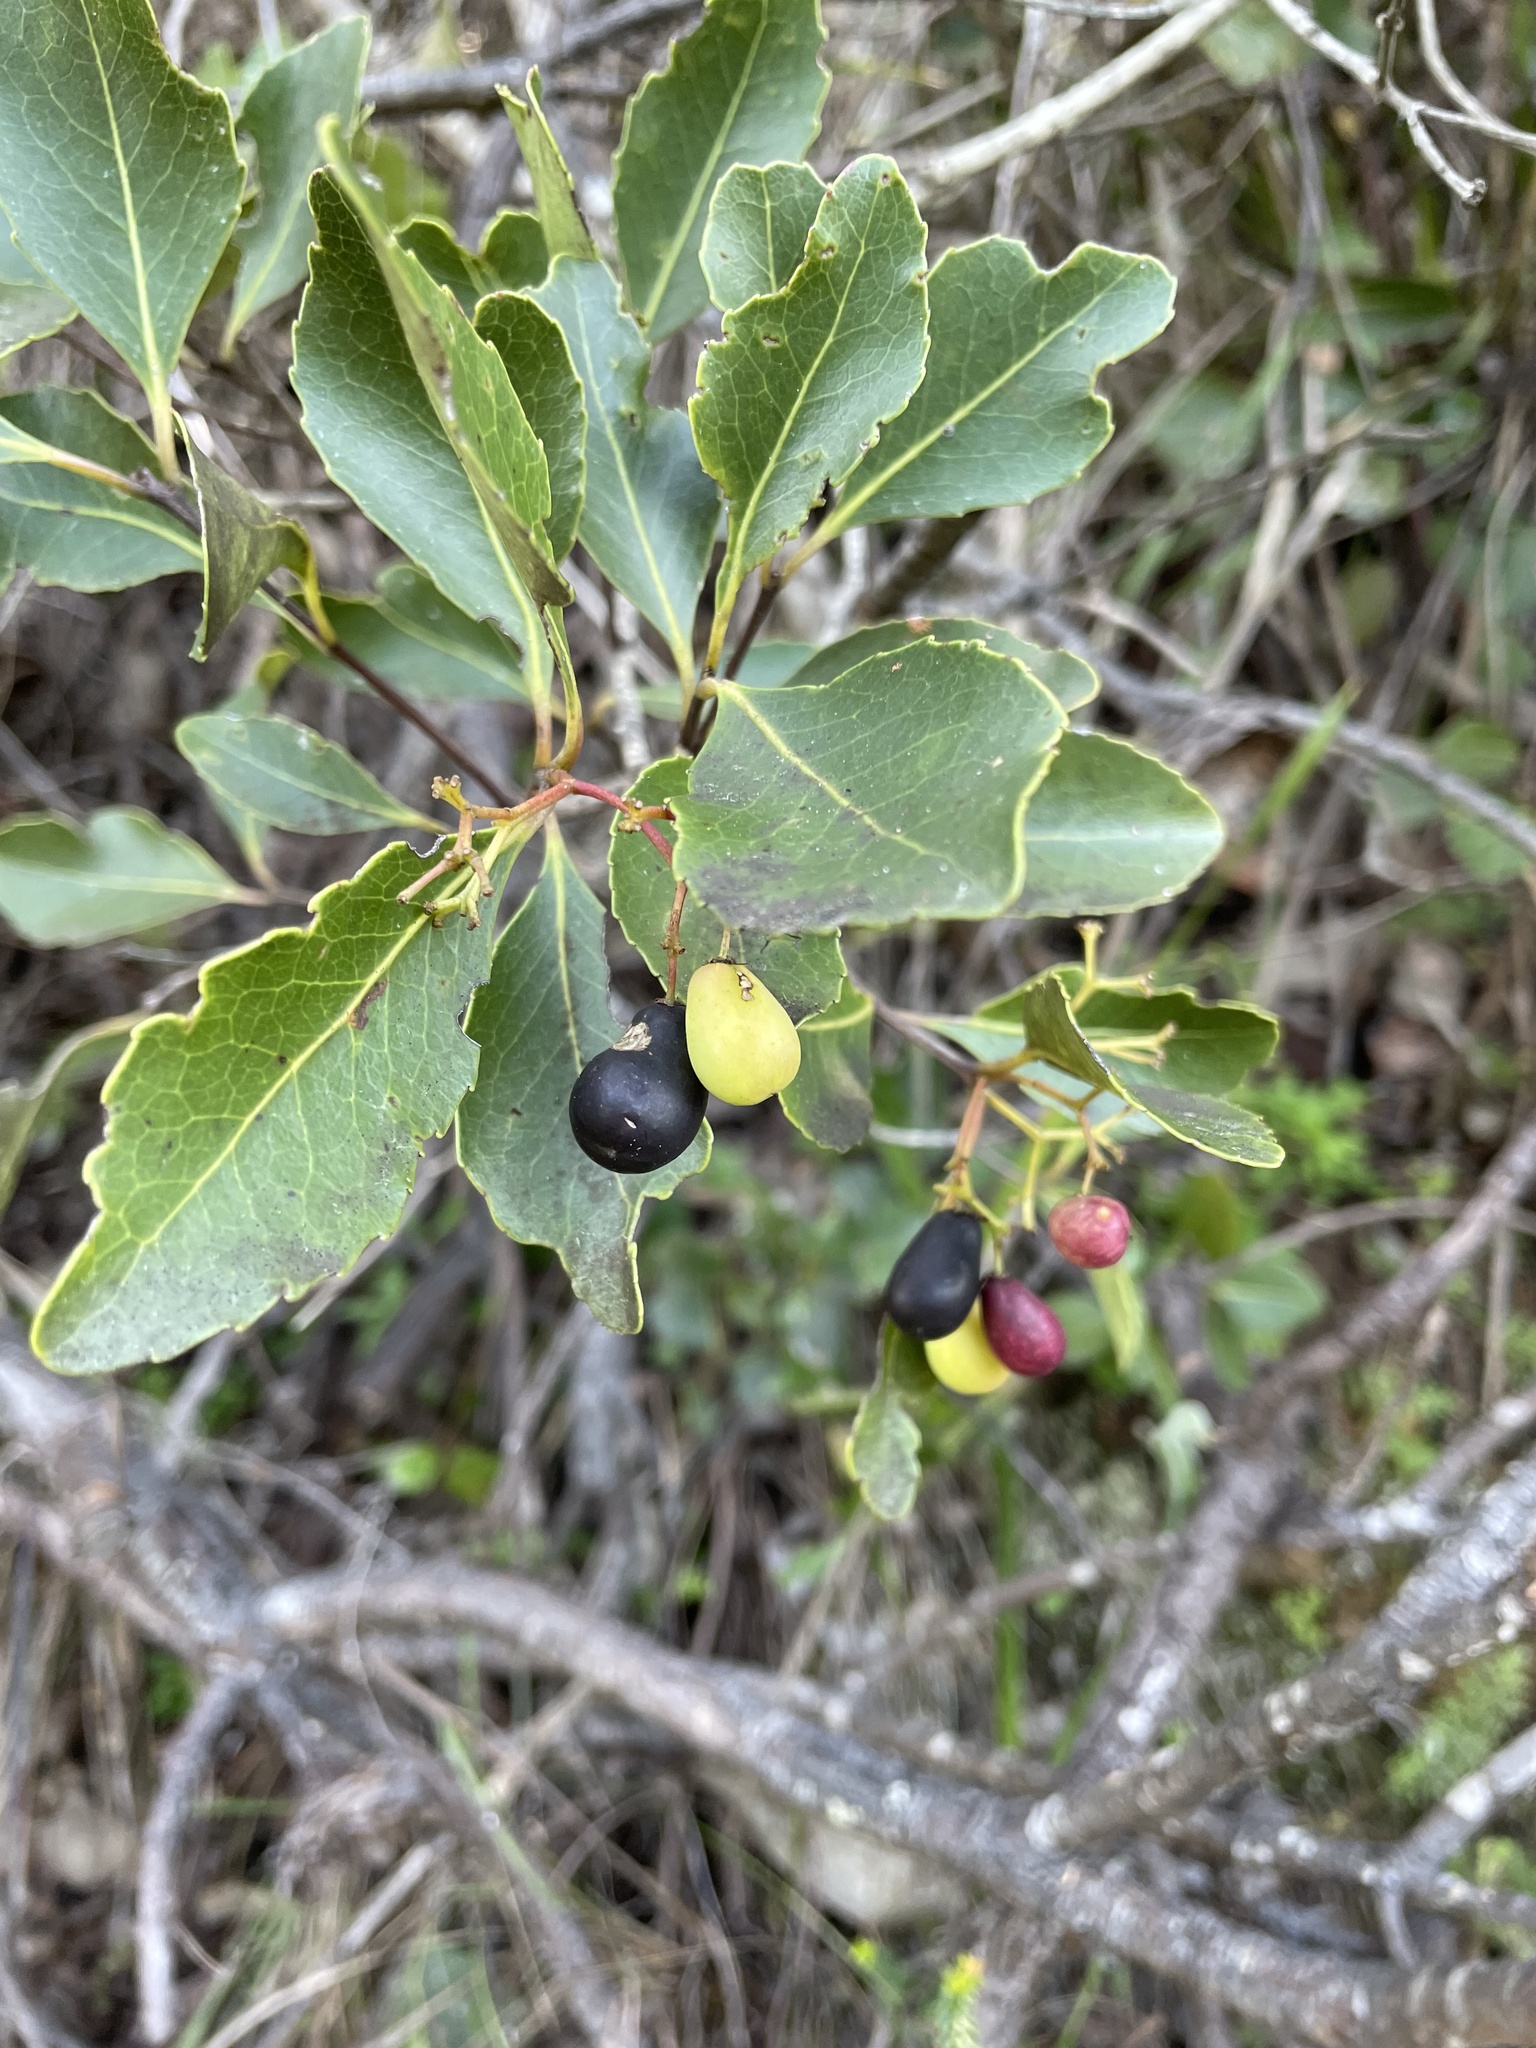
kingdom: Plantae
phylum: Tracheophyta
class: Magnoliopsida
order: Celastrales
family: Celastraceae
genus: Cassine
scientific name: Cassine peragua
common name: Cape saffron
